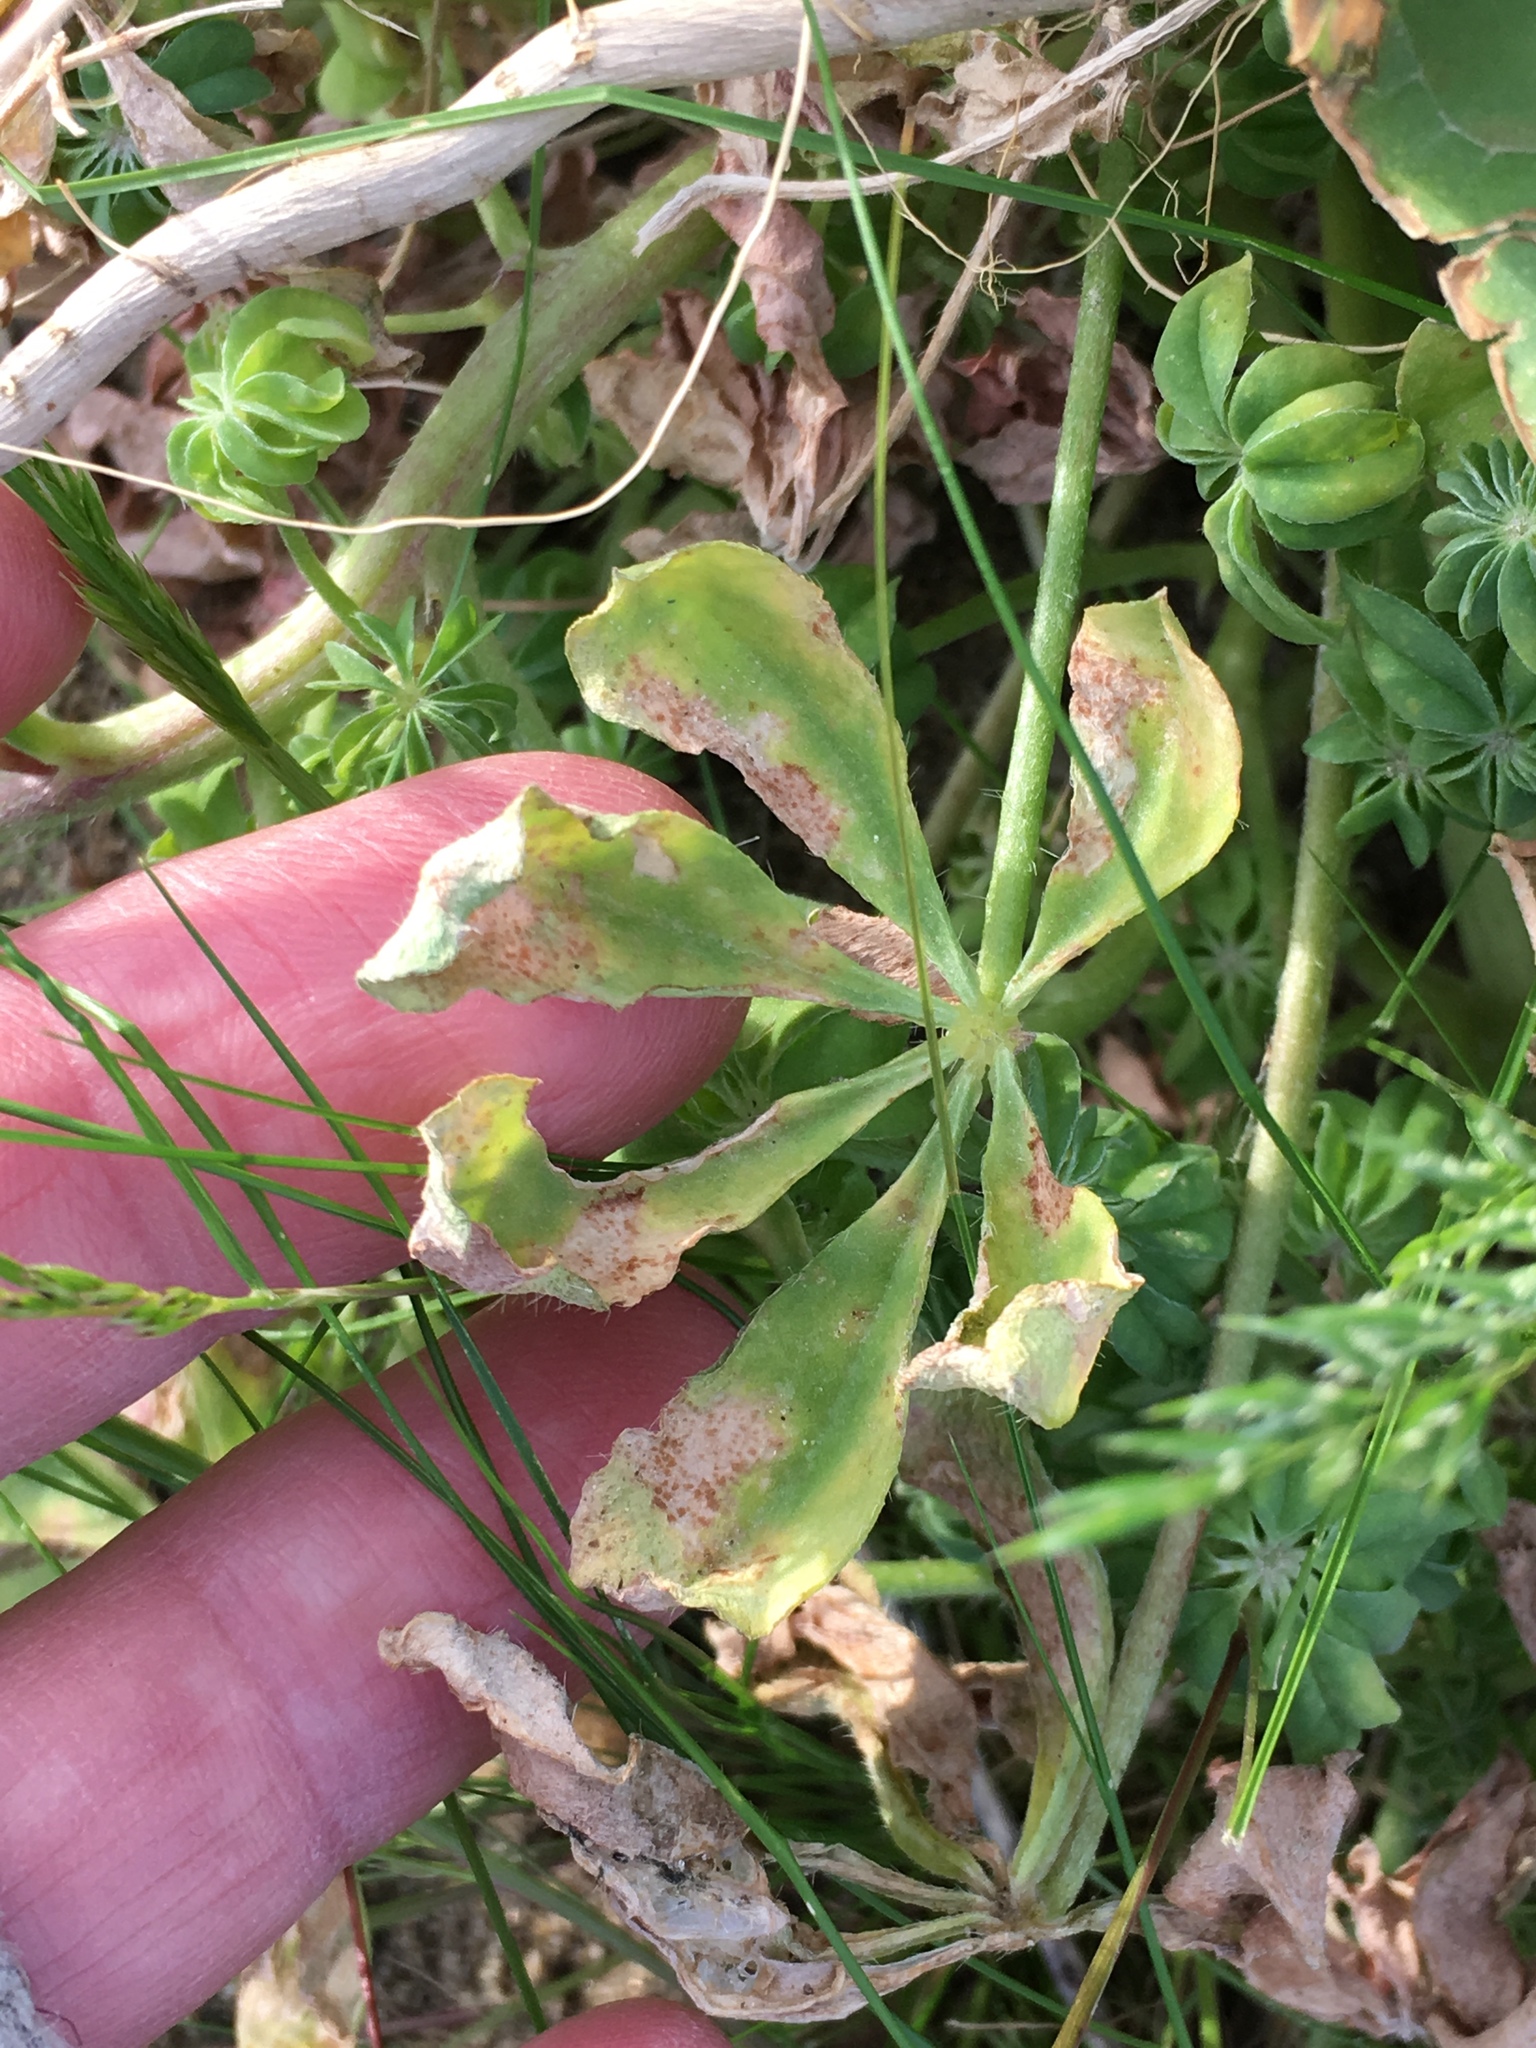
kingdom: Plantae
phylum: Tracheophyta
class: Magnoliopsida
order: Fabales
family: Fabaceae
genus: Lupinus
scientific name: Lupinus arizonicus
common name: Arizona lupine
